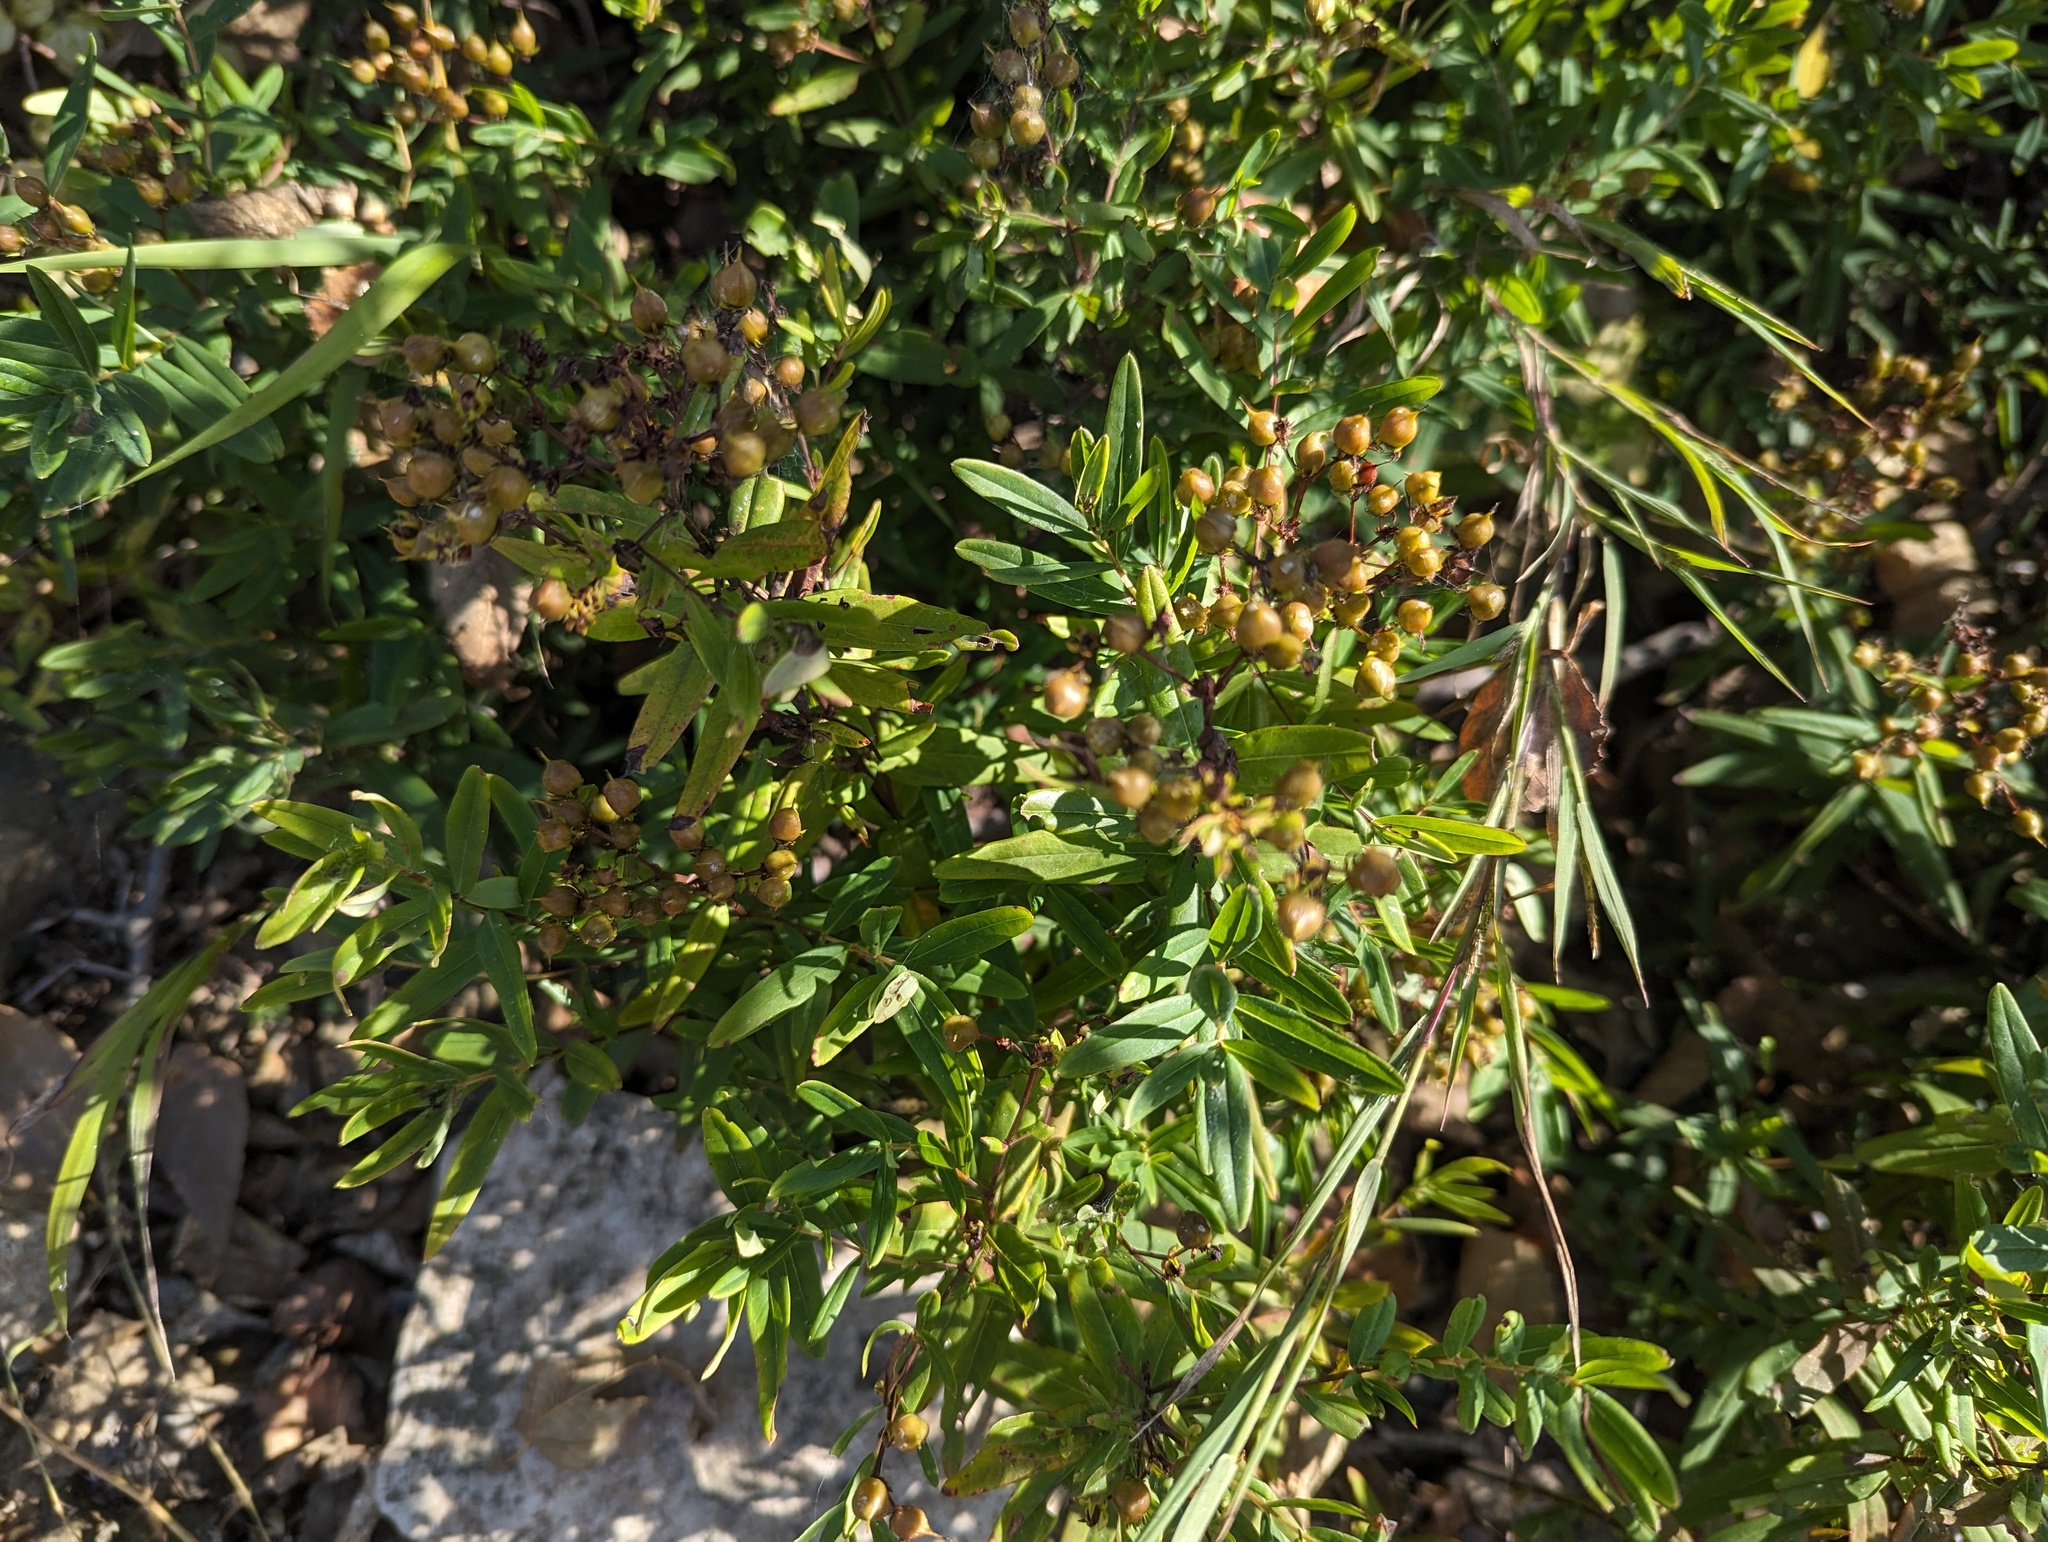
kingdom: Plantae
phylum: Tracheophyta
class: Magnoliopsida
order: Malpighiales
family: Hypericaceae
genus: Hypericum
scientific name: Hypericum sphaerocarpum
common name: Round-fruited st. john's-wort
